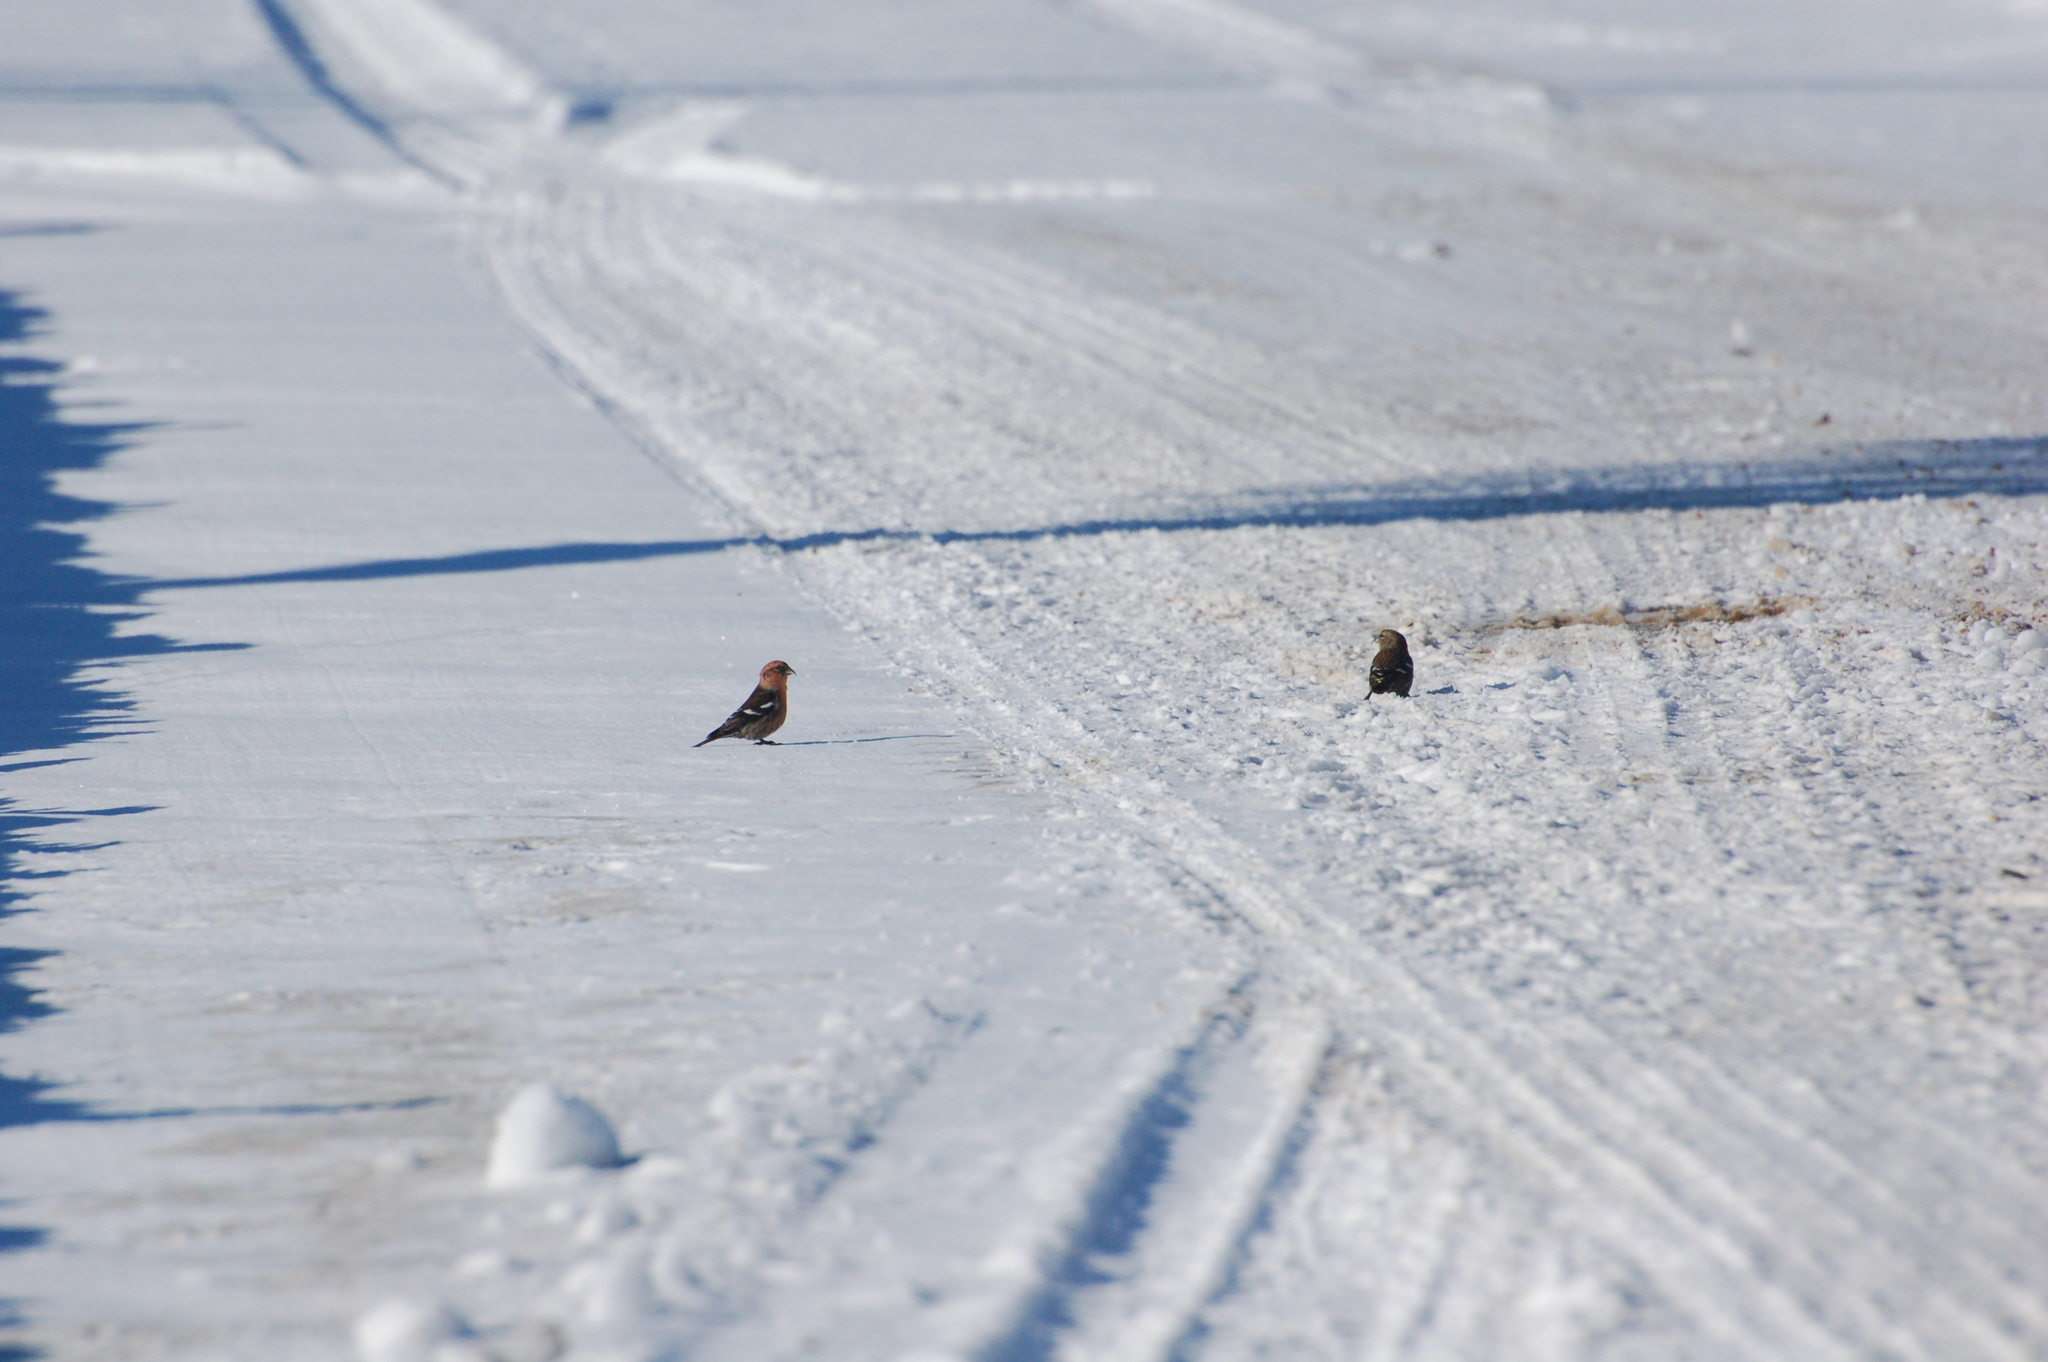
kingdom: Animalia
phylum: Chordata
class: Aves
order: Passeriformes
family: Fringillidae
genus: Loxia
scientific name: Loxia leucoptera
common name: Two-barred crossbill
